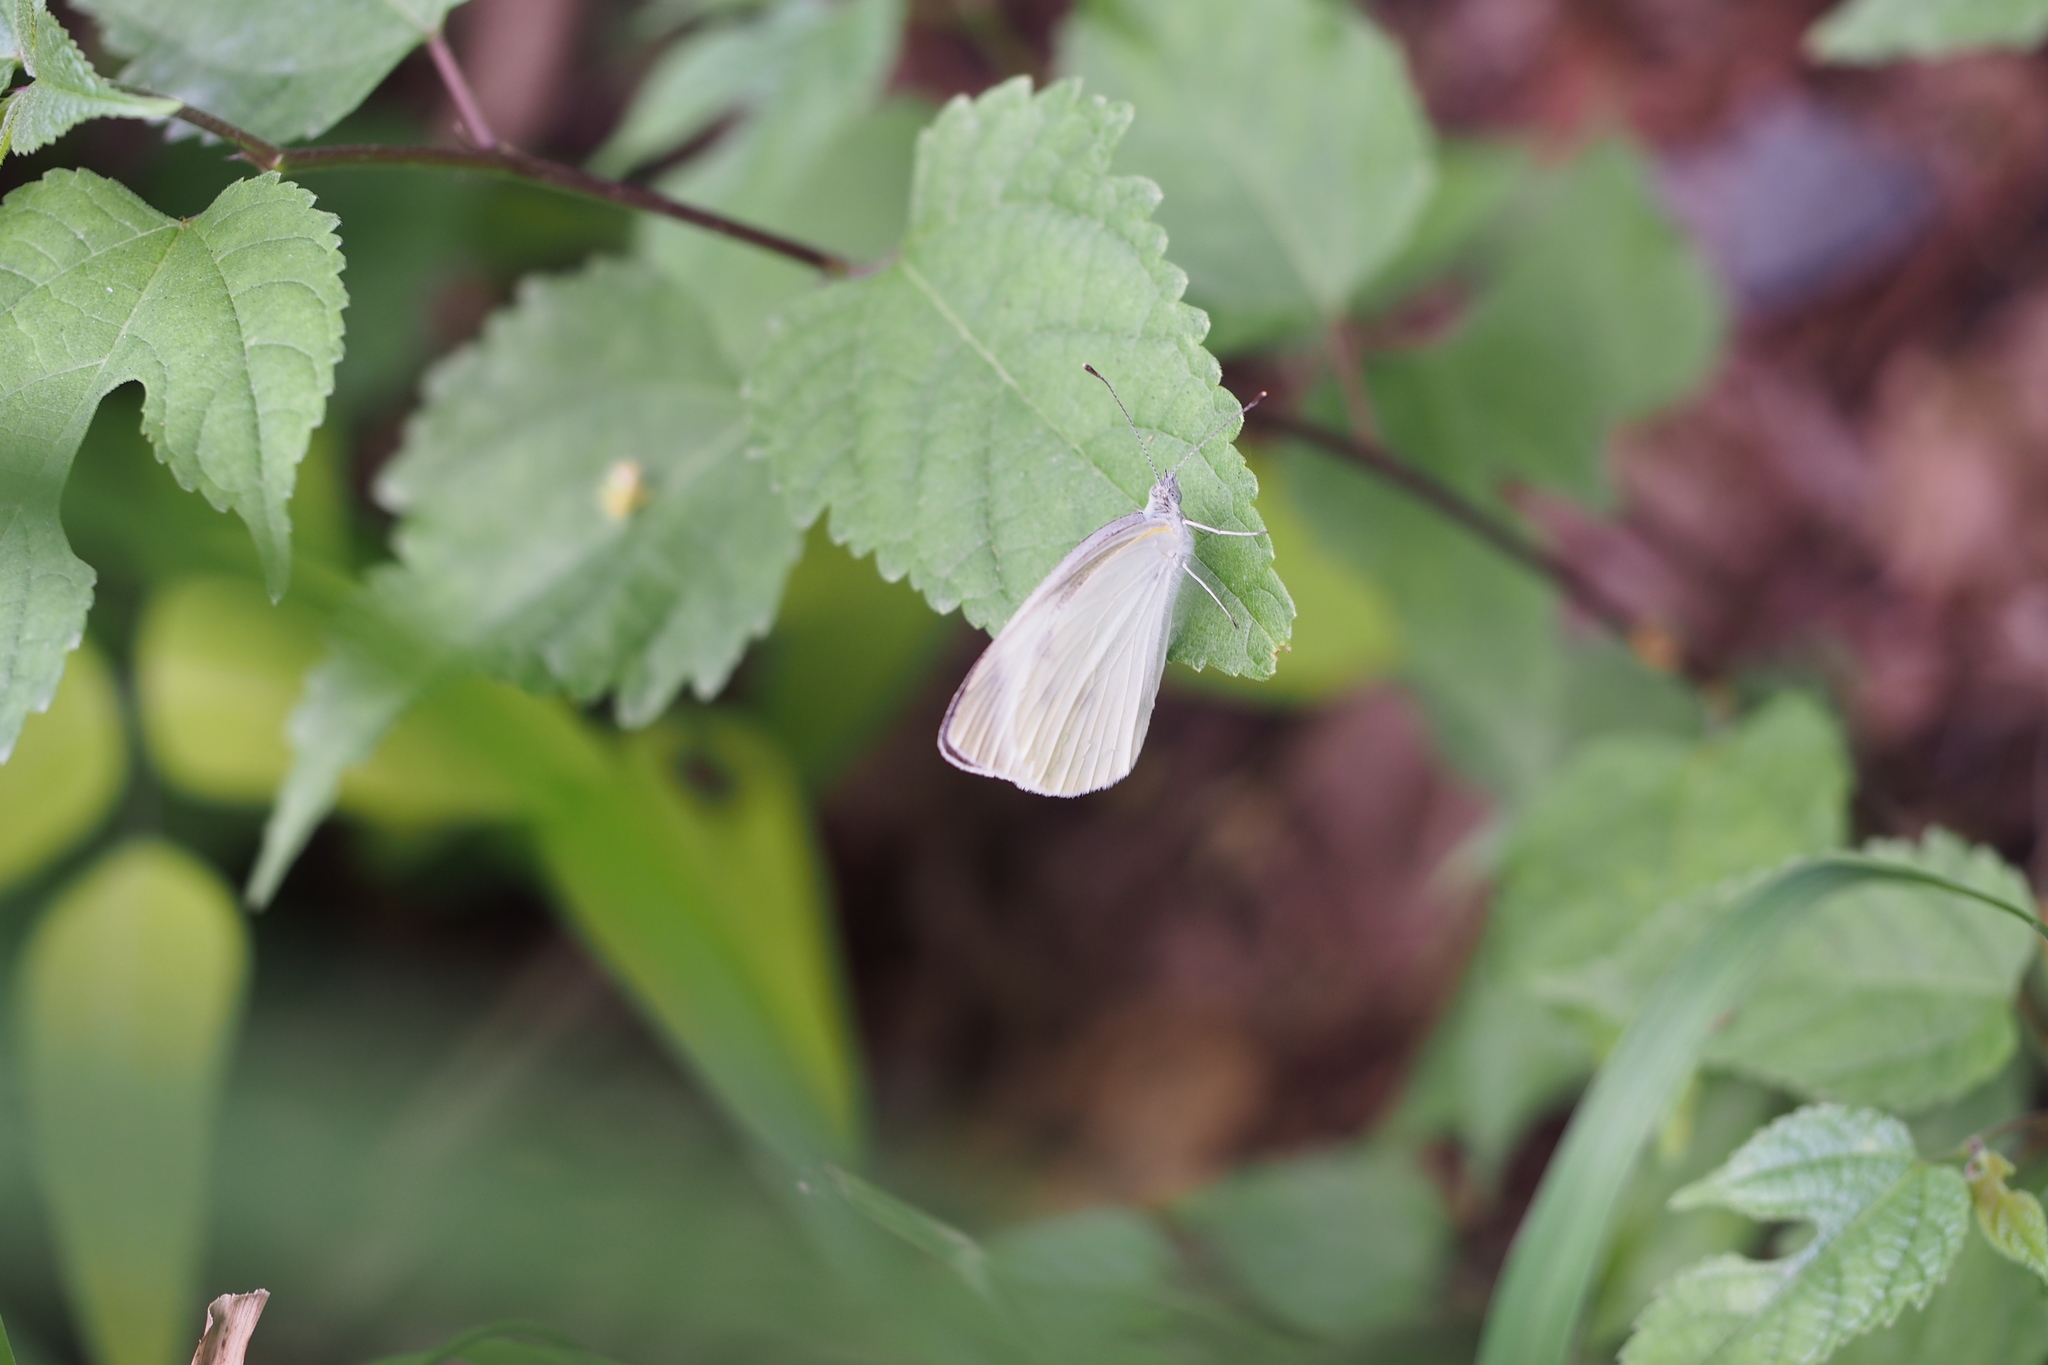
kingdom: Animalia
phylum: Arthropoda
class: Insecta
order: Lepidoptera
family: Pieridae
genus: Pieris
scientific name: Pieris rapae
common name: Small white
